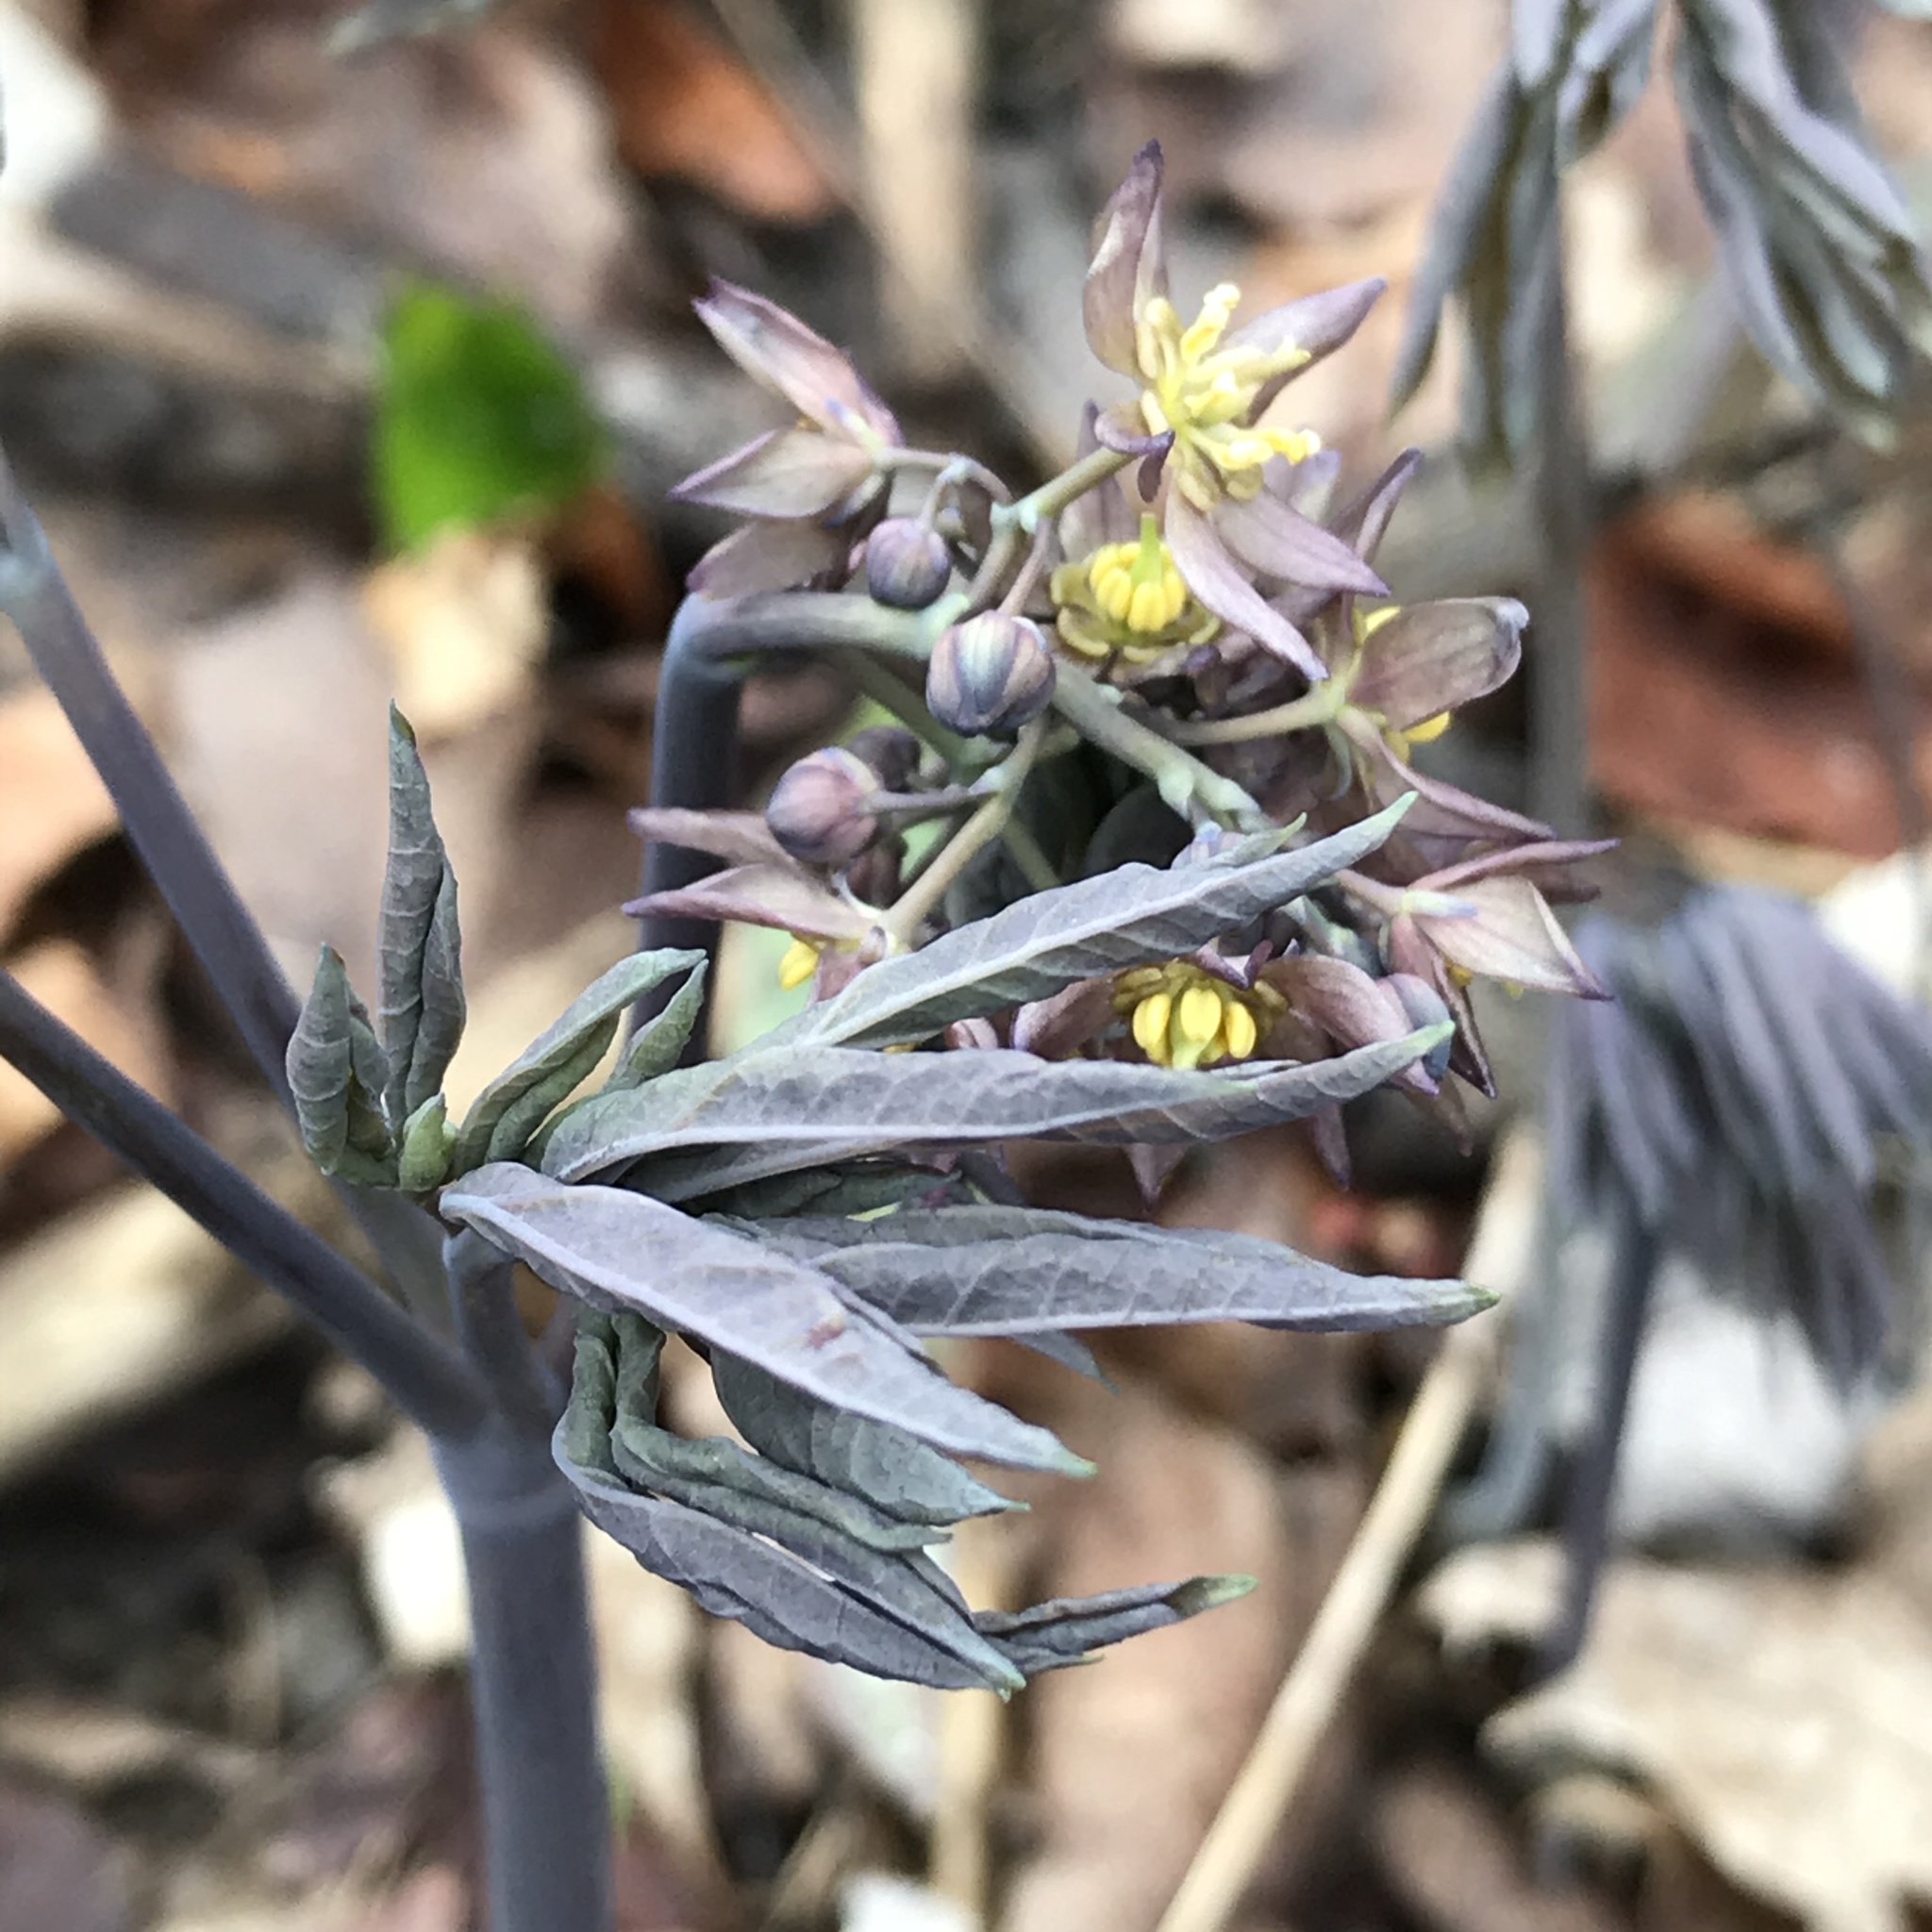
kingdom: Plantae
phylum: Tracheophyta
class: Magnoliopsida
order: Ranunculales
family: Berberidaceae
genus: Caulophyllum
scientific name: Caulophyllum giganteum
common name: Blue cohosh
